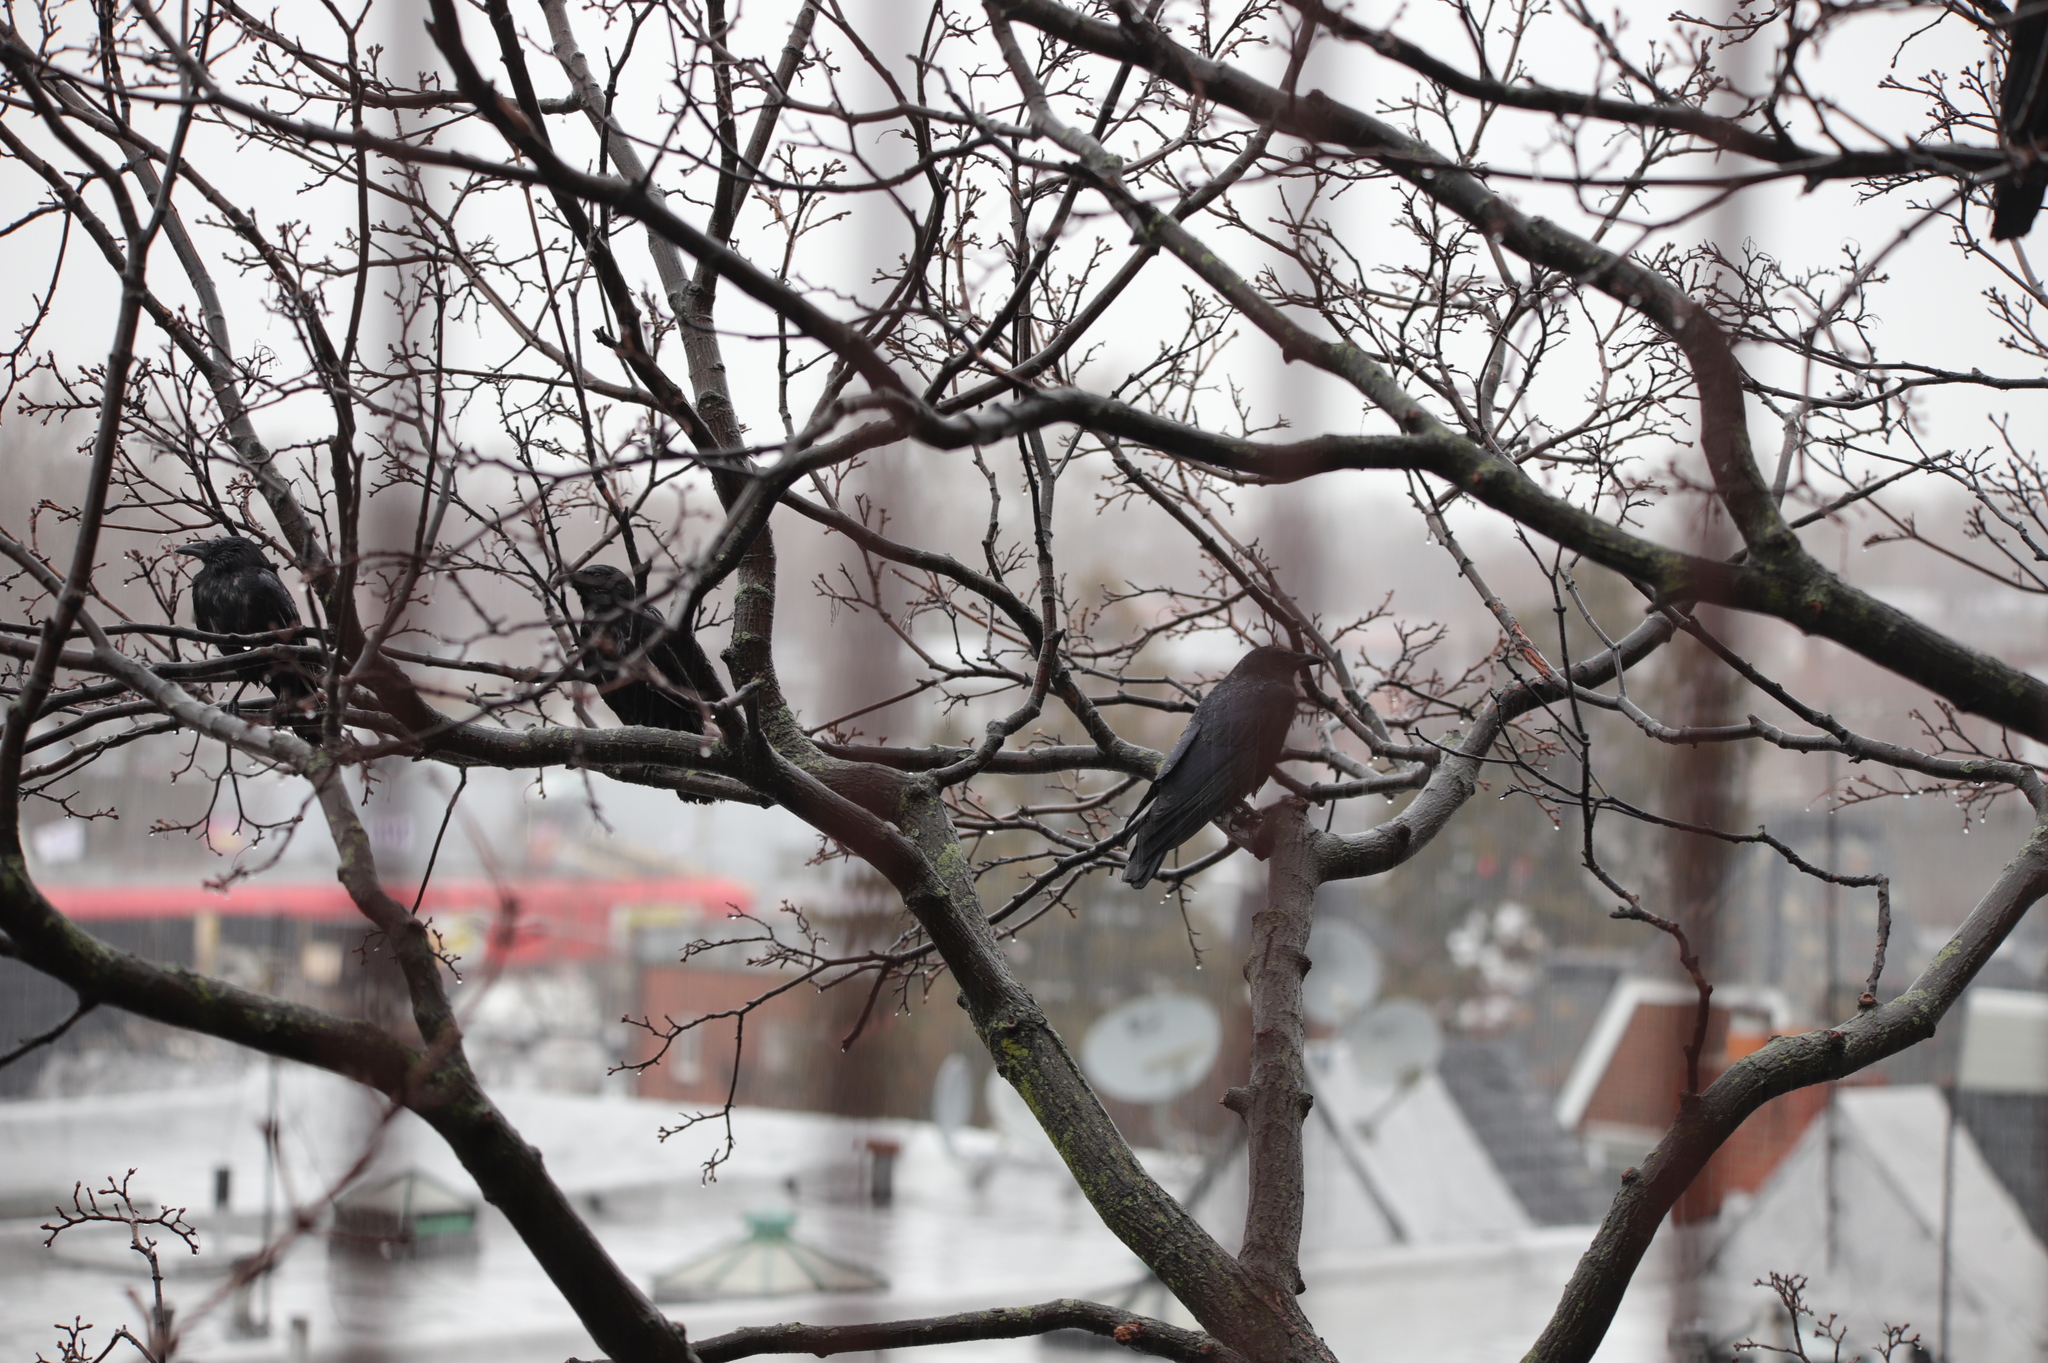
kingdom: Animalia
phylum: Chordata
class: Aves
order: Passeriformes
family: Corvidae
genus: Corvus
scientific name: Corvus brachyrhynchos
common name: American crow
